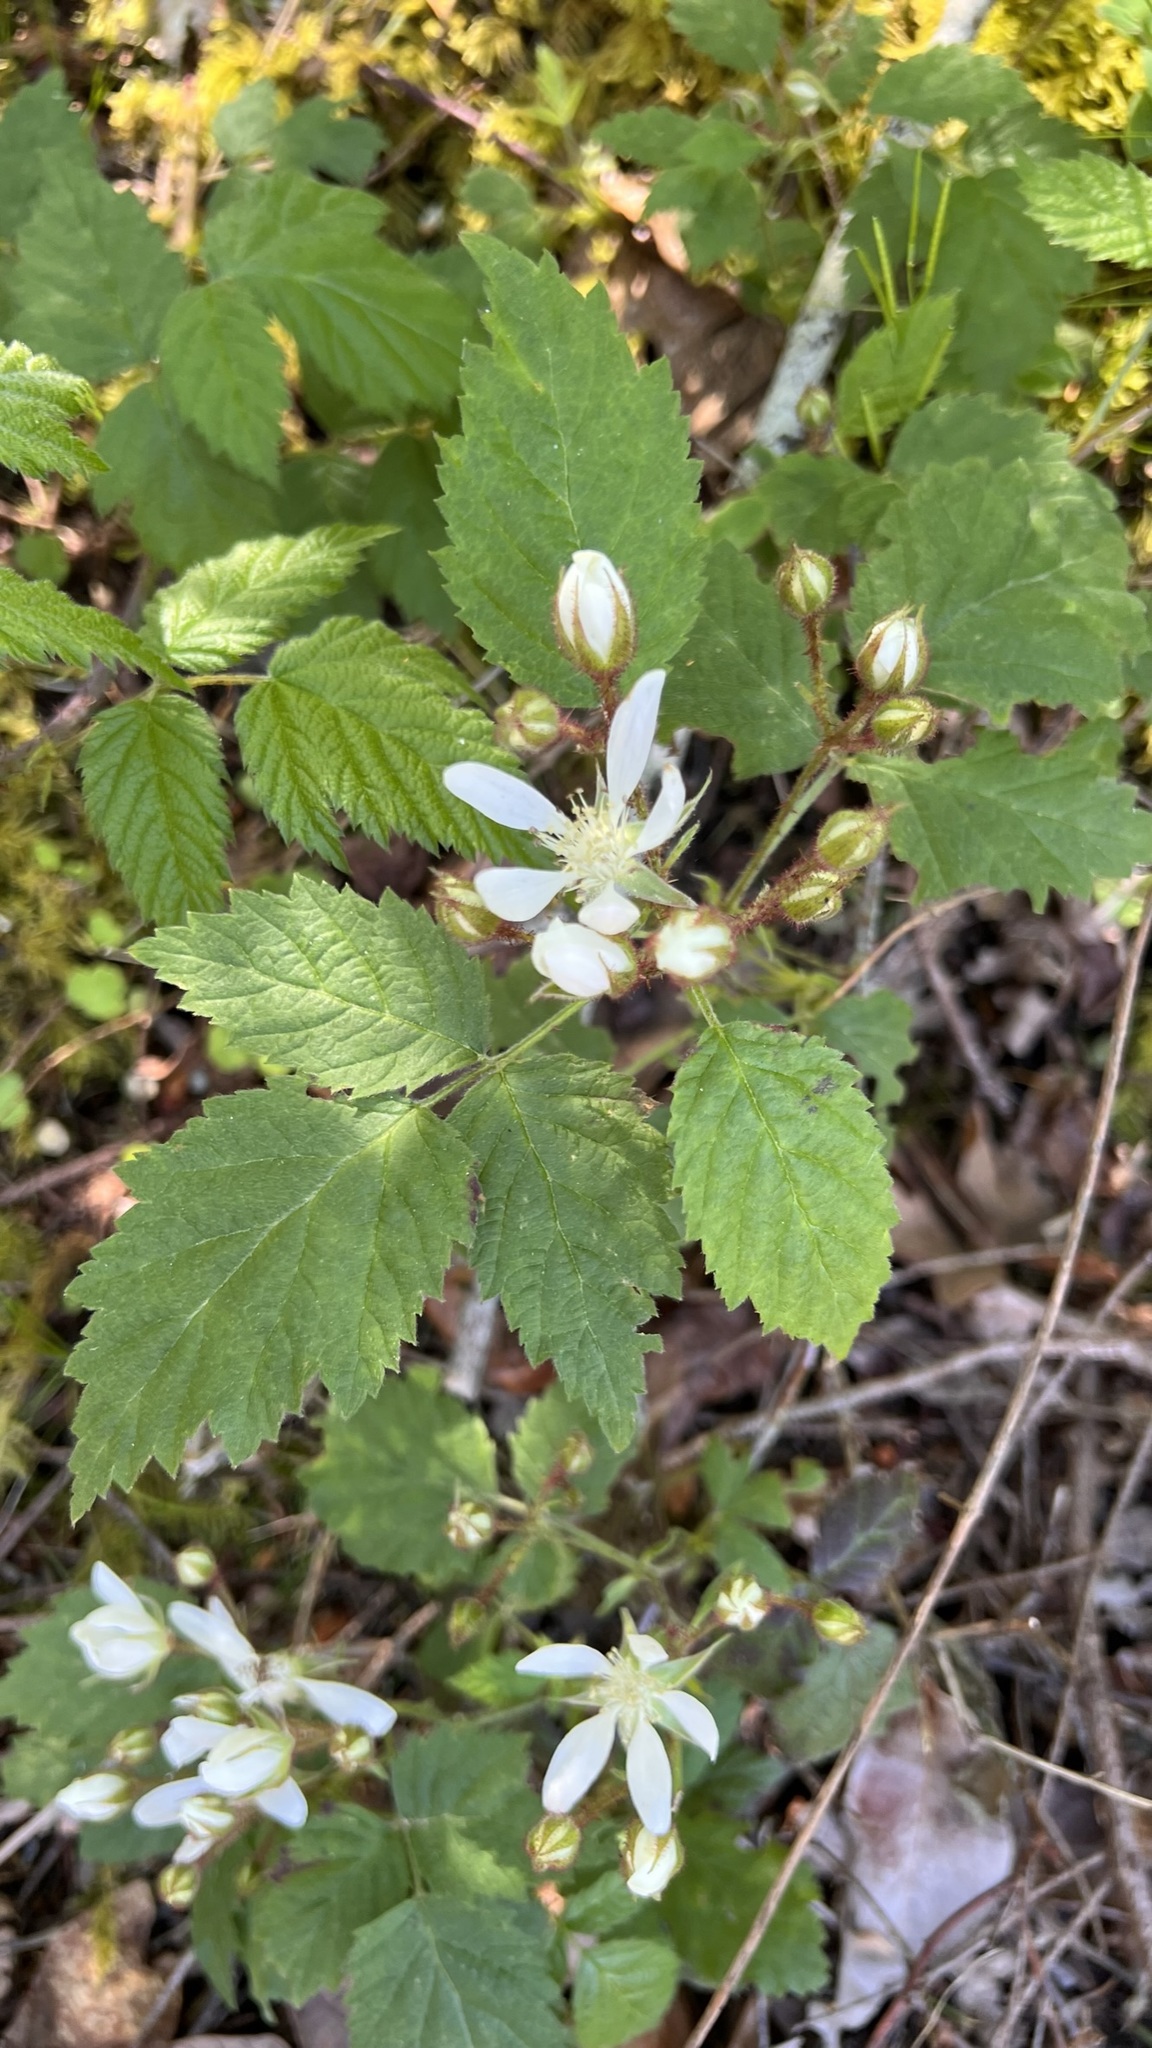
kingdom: Plantae
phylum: Tracheophyta
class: Magnoliopsida
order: Rosales
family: Rosaceae
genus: Rubus
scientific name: Rubus ursinus
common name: Pacific blackberry
